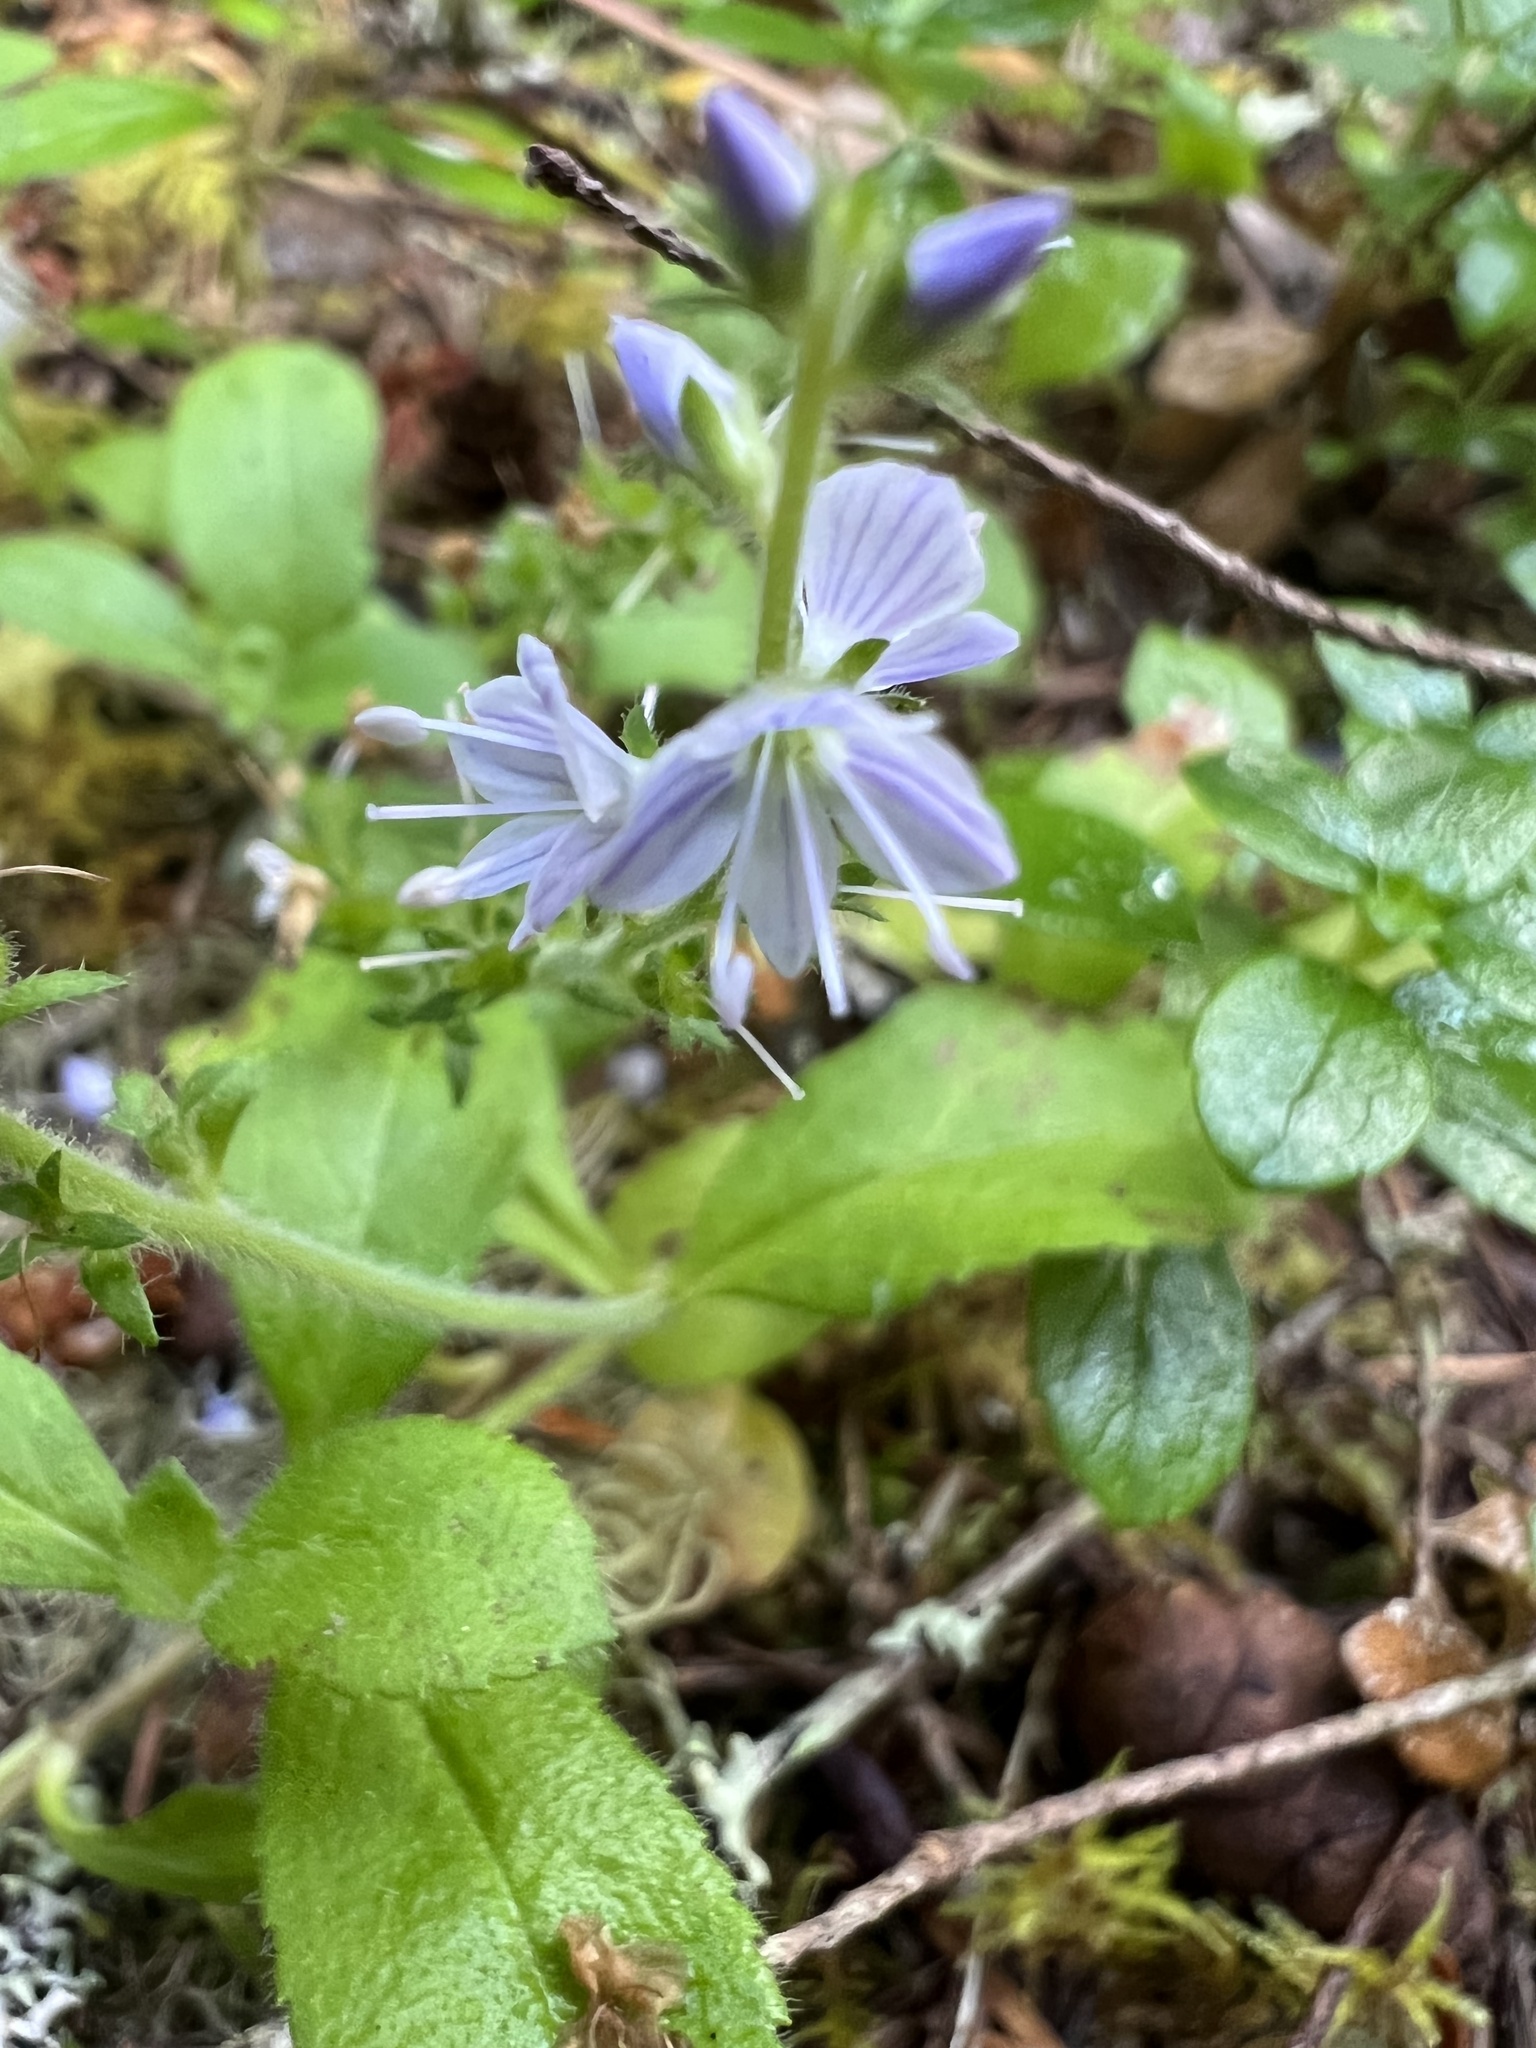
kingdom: Plantae
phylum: Tracheophyta
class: Magnoliopsida
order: Lamiales
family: Plantaginaceae
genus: Veronica
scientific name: Veronica officinalis
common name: Common speedwell
